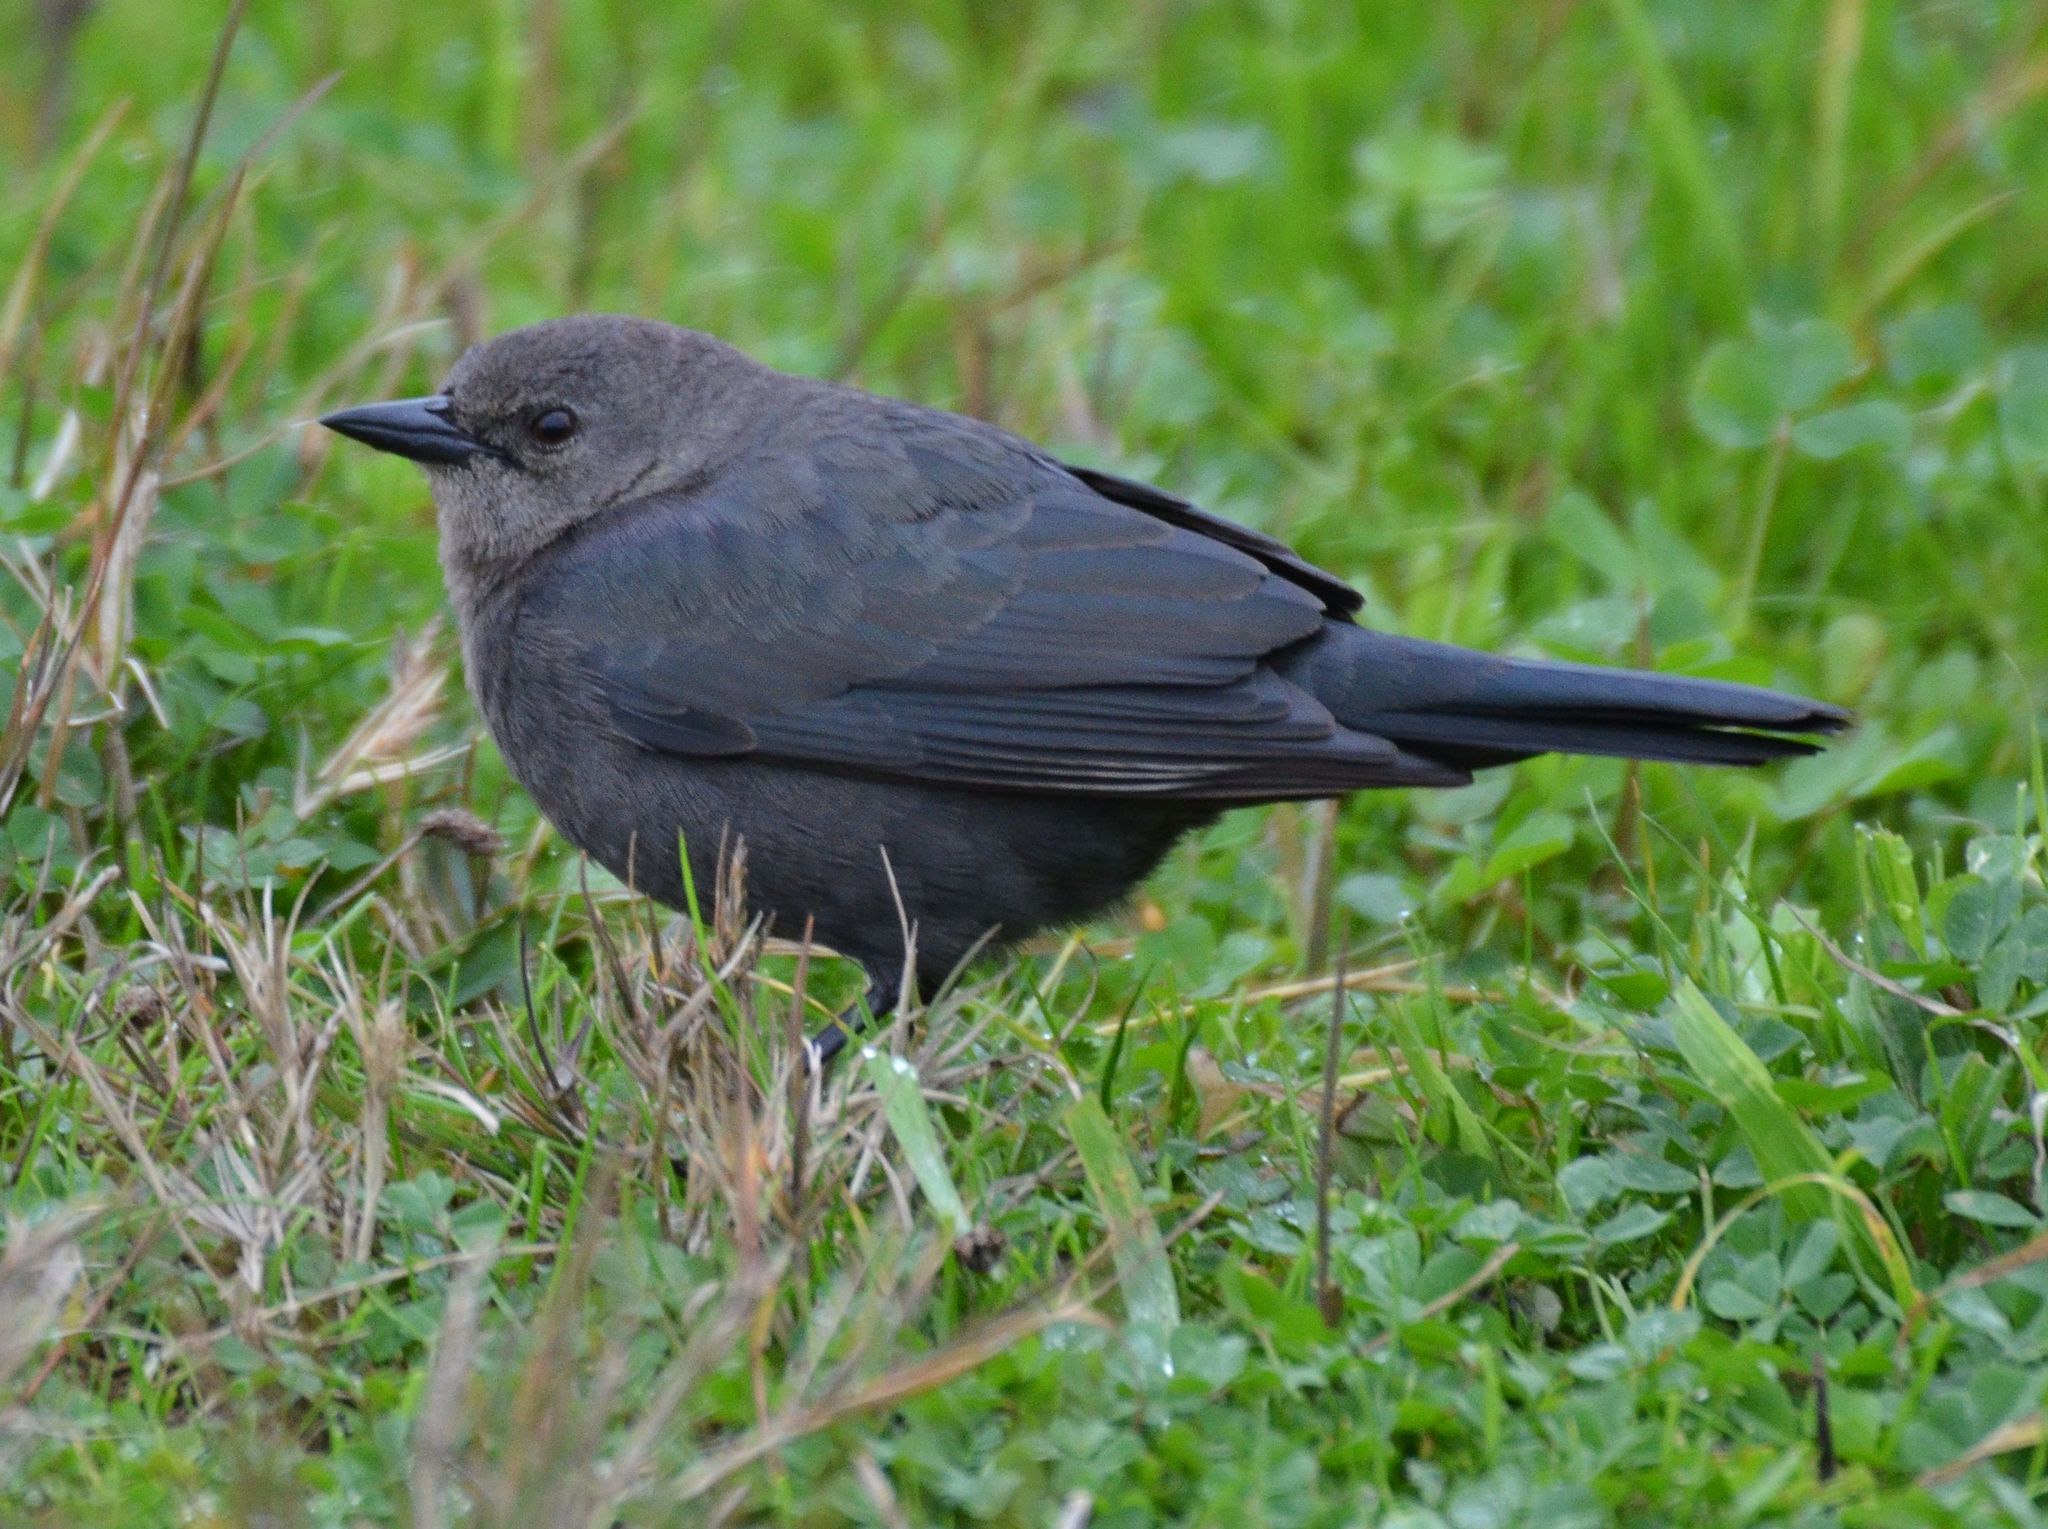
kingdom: Animalia
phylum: Chordata
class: Aves
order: Passeriformes
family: Icteridae
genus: Euphagus
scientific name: Euphagus cyanocephalus
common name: Brewer's blackbird
